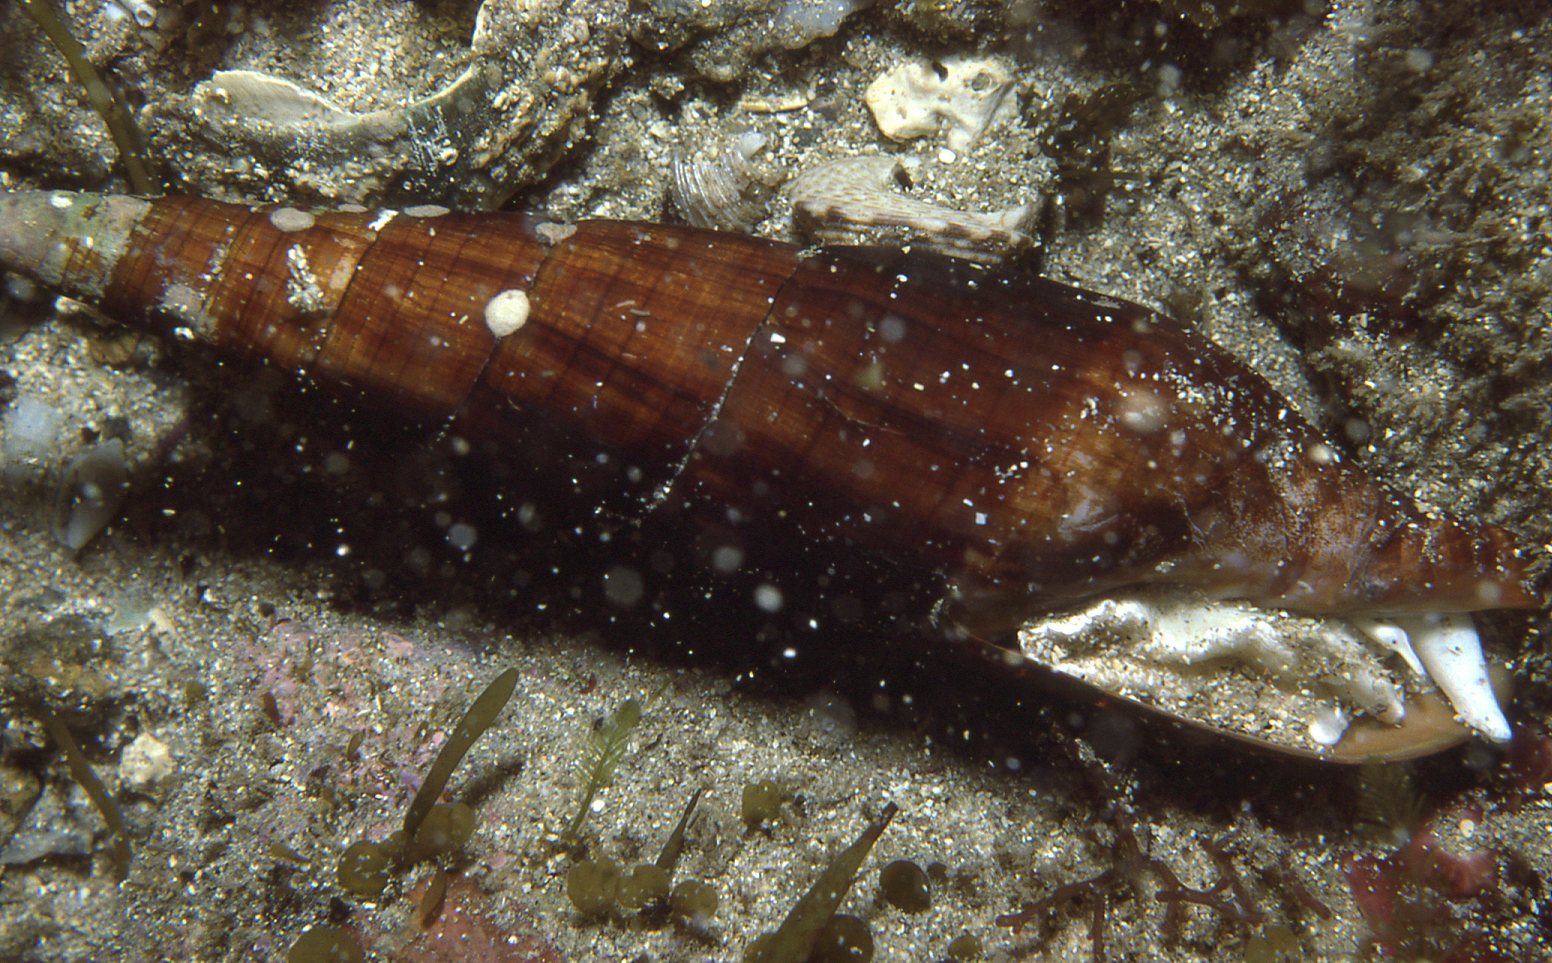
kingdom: Animalia
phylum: Mollusca
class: Gastropoda
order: Neogastropoda
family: Mitridae
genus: Isara
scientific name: Isara glabra
